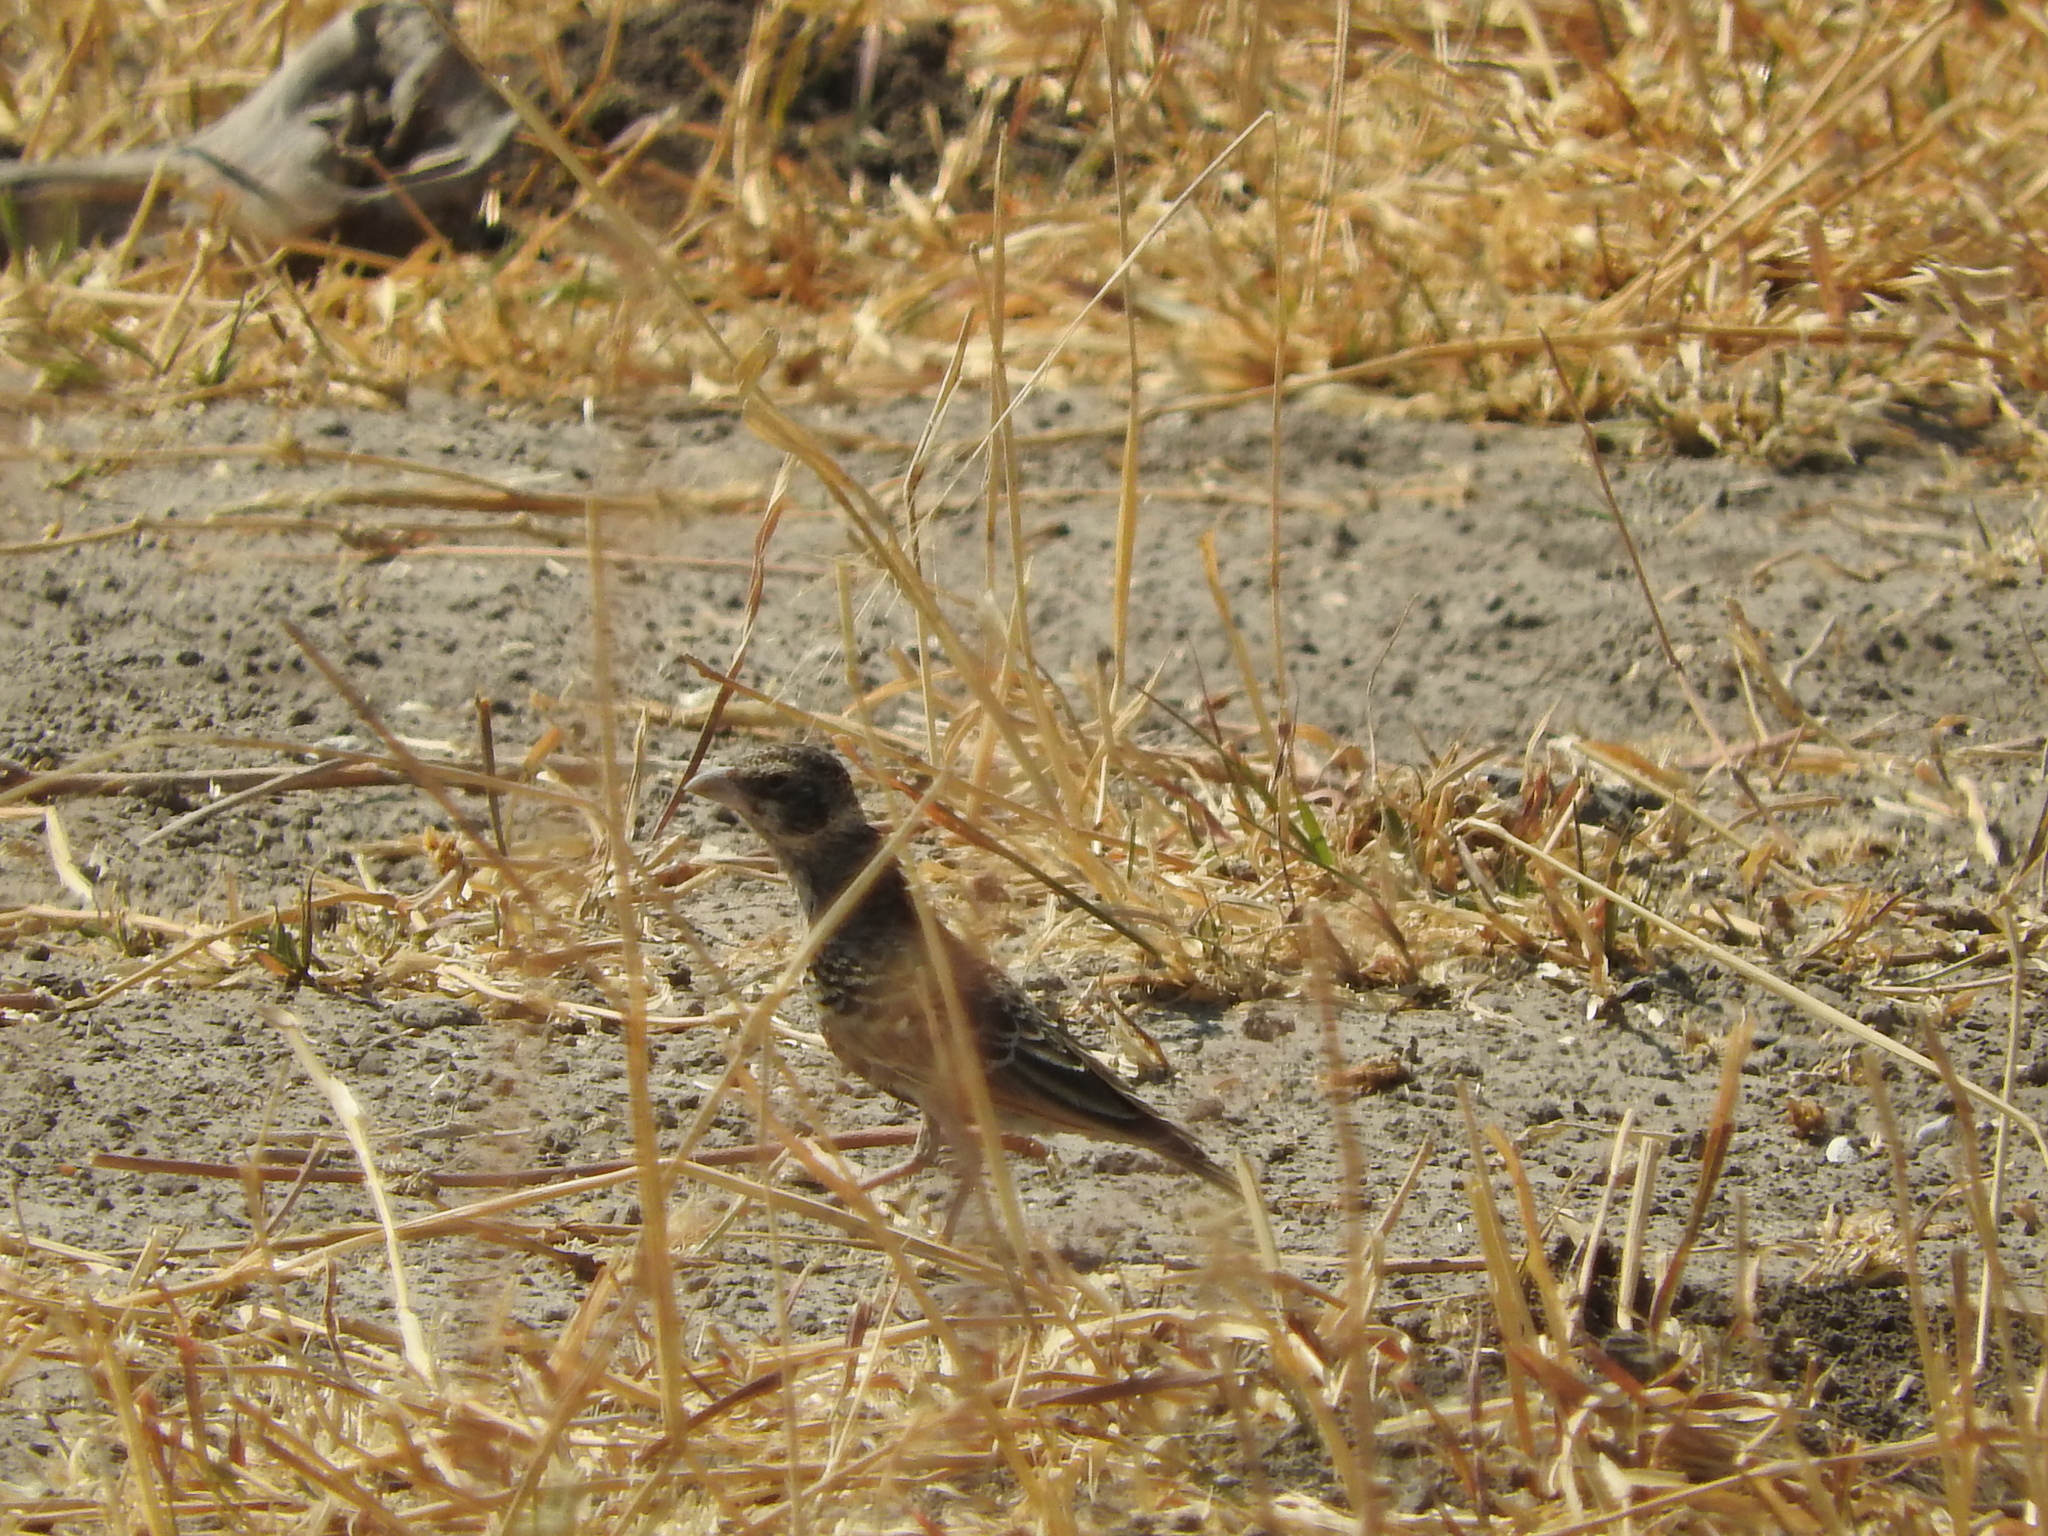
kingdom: Animalia
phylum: Chordata
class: Aves
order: Passeriformes
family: Alaudidae
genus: Eremopterix
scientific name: Eremopterix leucotis
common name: Chestnut-backed sparrow-lark
